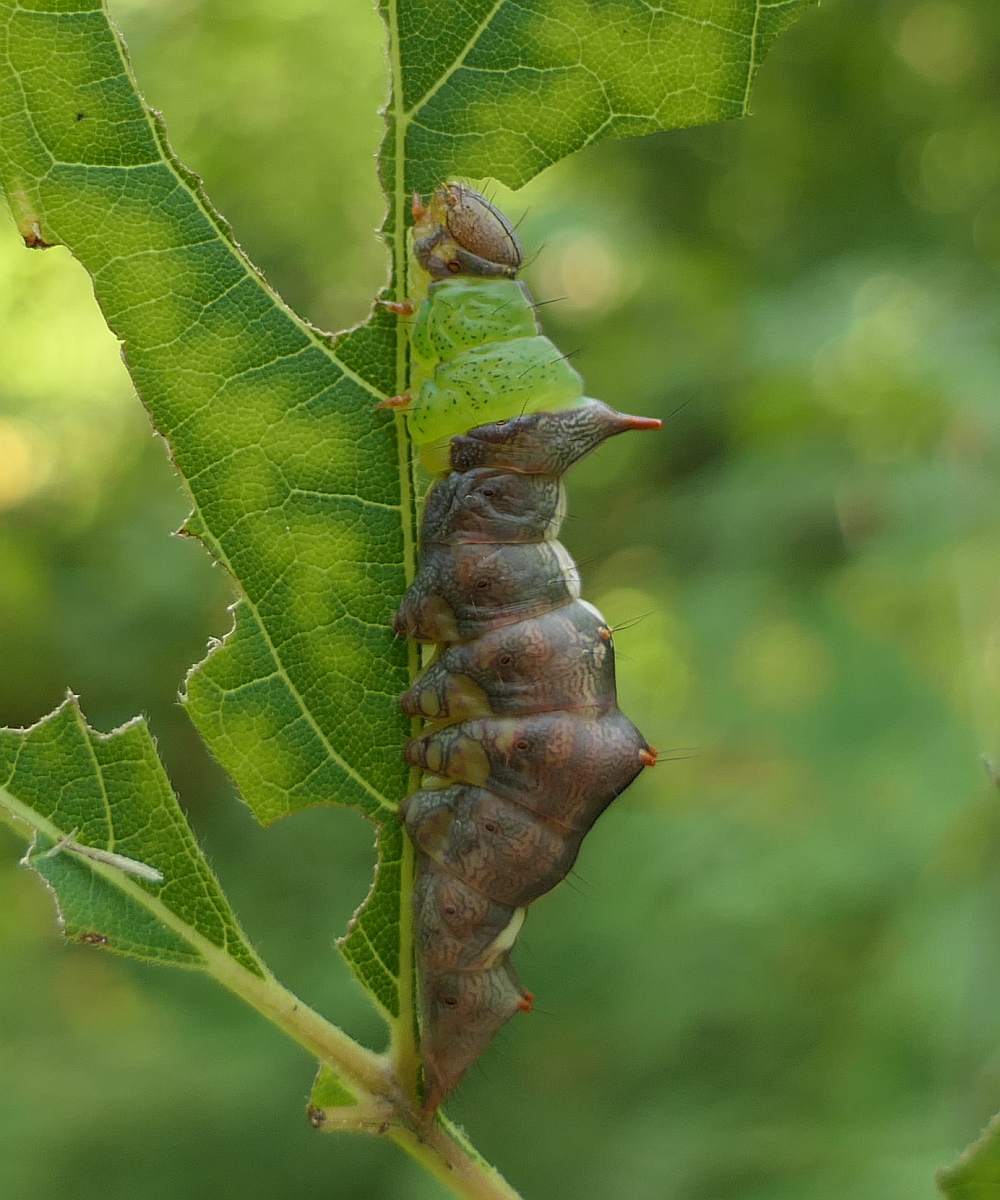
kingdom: Animalia
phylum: Arthropoda
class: Insecta
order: Lepidoptera
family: Notodontidae
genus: Schizura
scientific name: Schizura ipomaeae
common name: Morning-glory prominent
